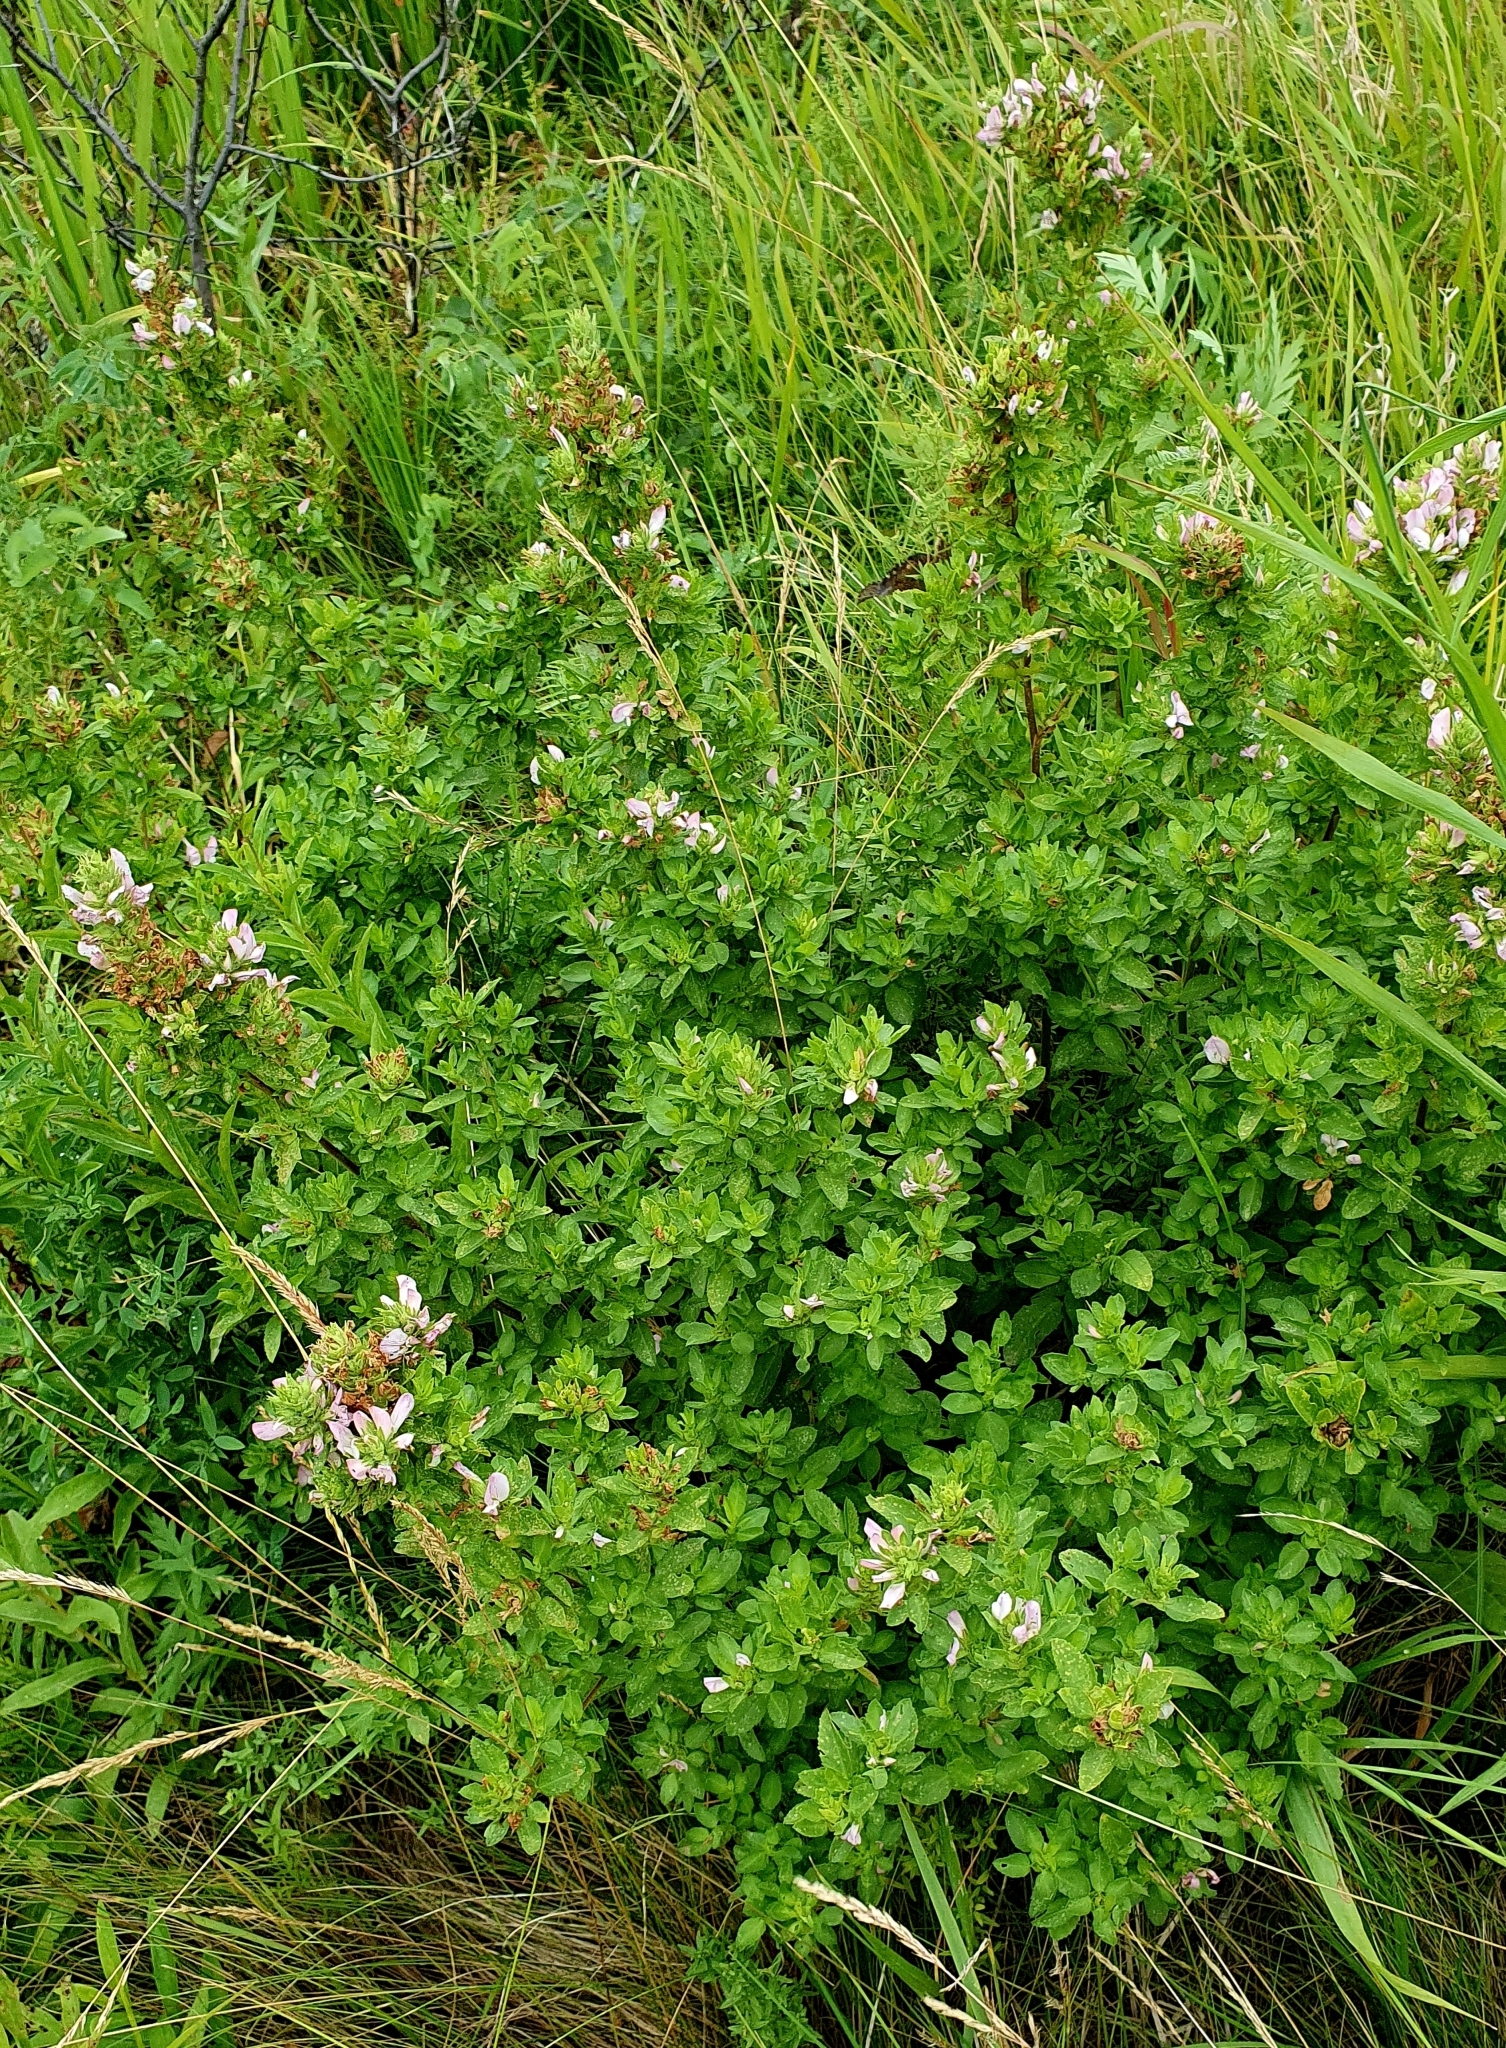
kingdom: Plantae
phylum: Tracheophyta
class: Magnoliopsida
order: Fabales
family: Fabaceae
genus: Ononis
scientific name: Ononis arvensis
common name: Field restharrow
